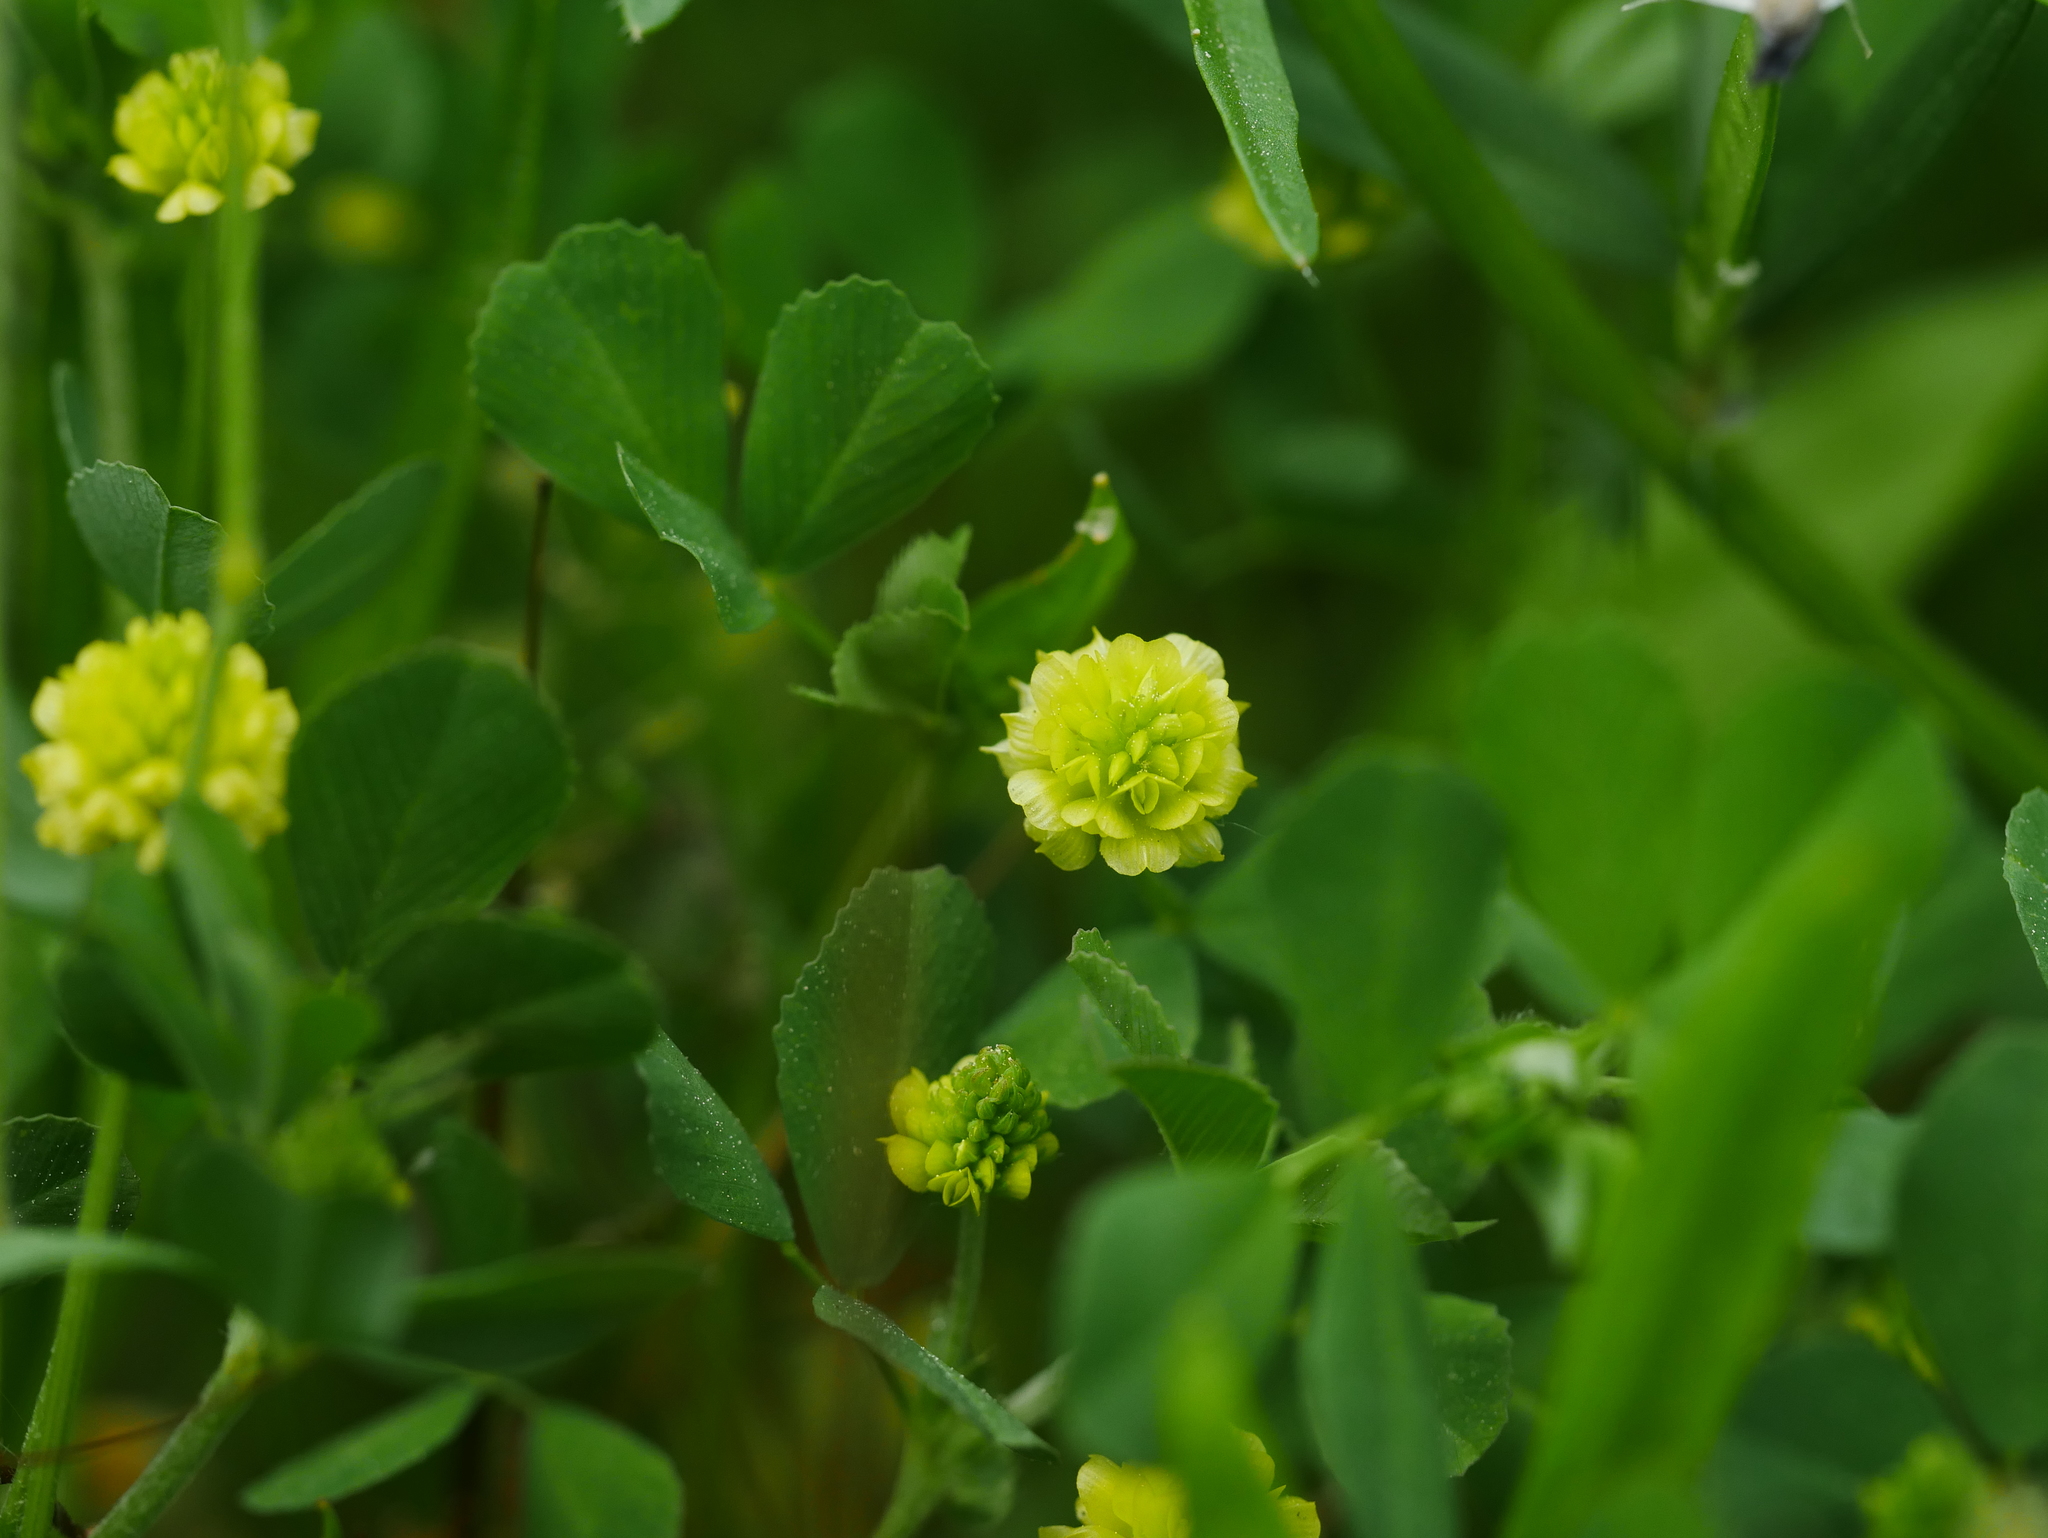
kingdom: Plantae
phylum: Tracheophyta
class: Magnoliopsida
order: Fabales
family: Fabaceae
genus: Trifolium
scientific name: Trifolium campestre
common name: Field clover
